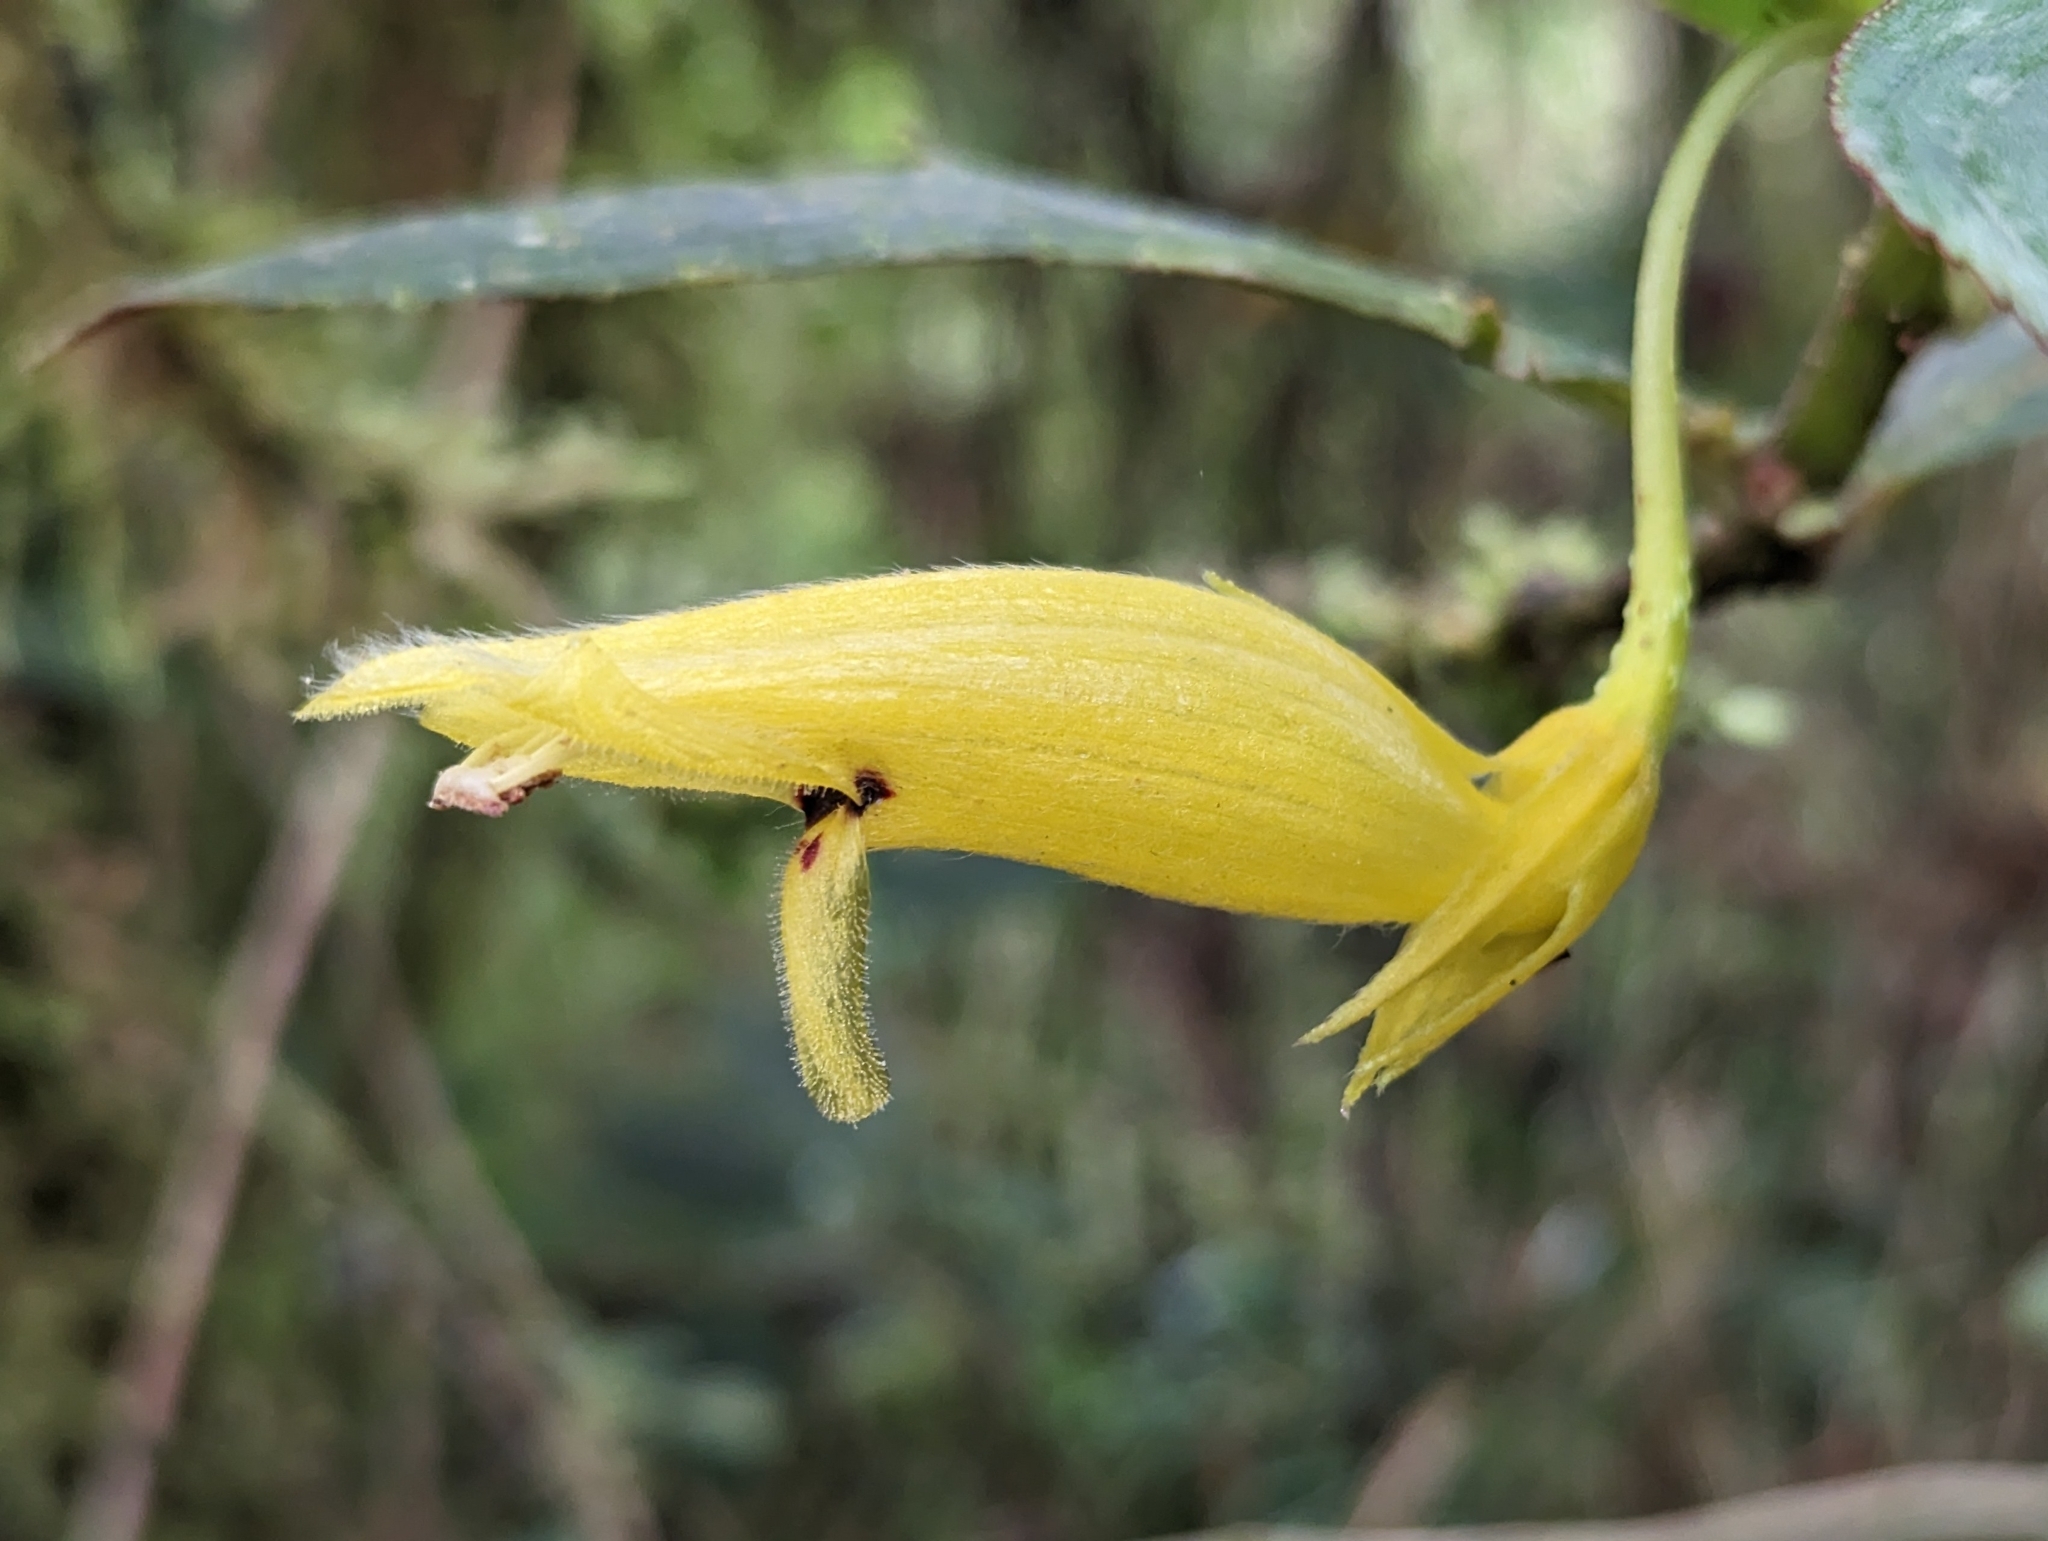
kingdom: Plantae
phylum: Tracheophyta
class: Magnoliopsida
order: Lamiales
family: Gesneriaceae
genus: Columnea
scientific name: Columnea ericae
